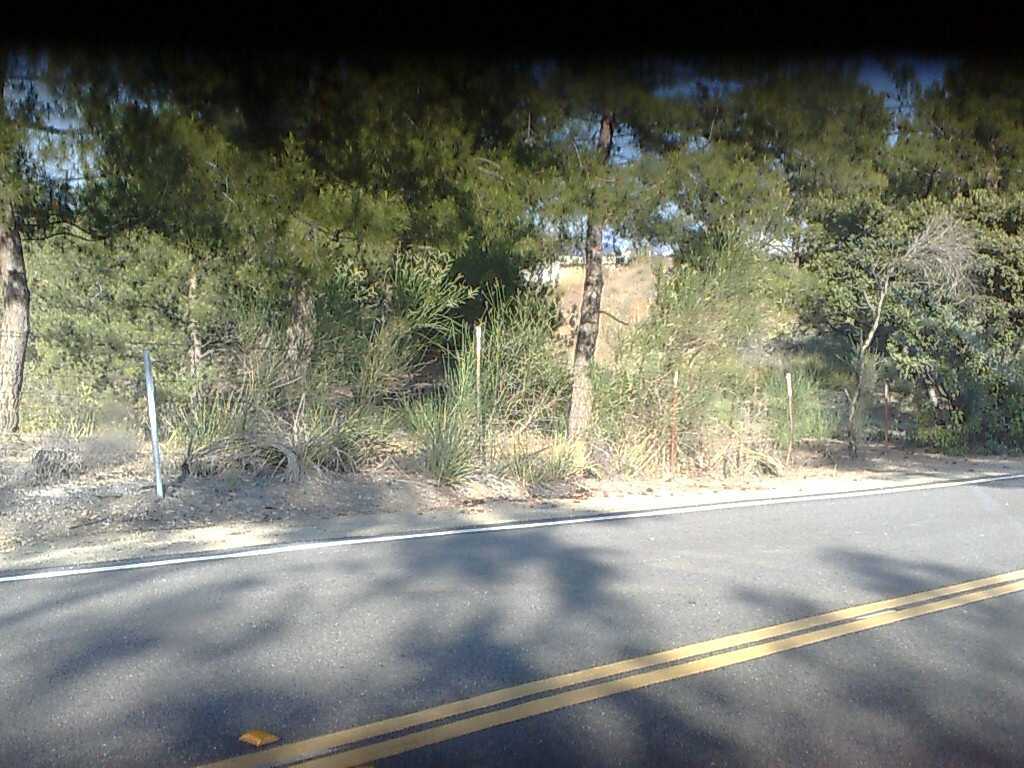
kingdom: Plantae
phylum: Tracheophyta
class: Magnoliopsida
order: Fabales
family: Fabaceae
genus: Spartium
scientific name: Spartium junceum
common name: Spanish broom
